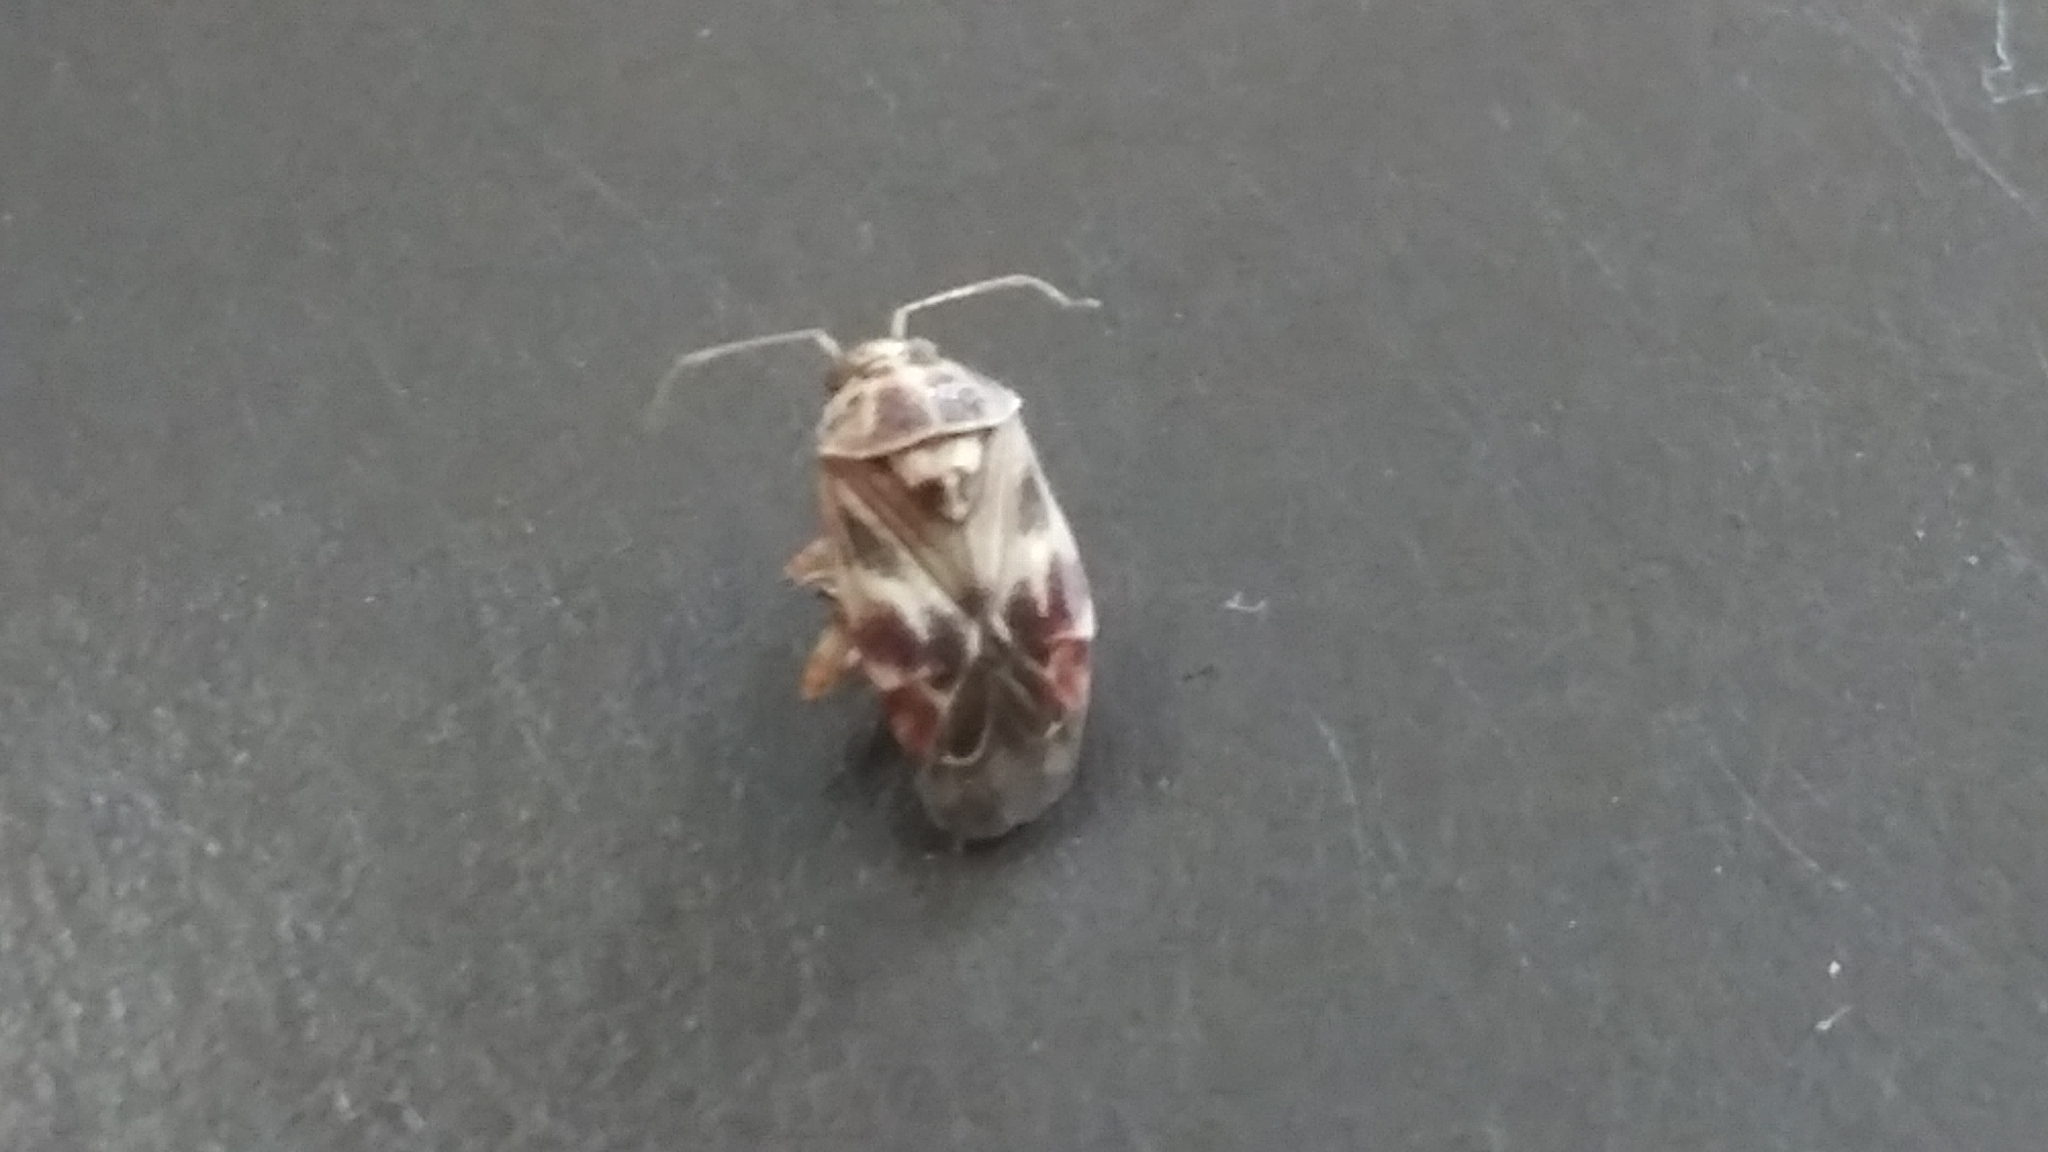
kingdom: Animalia
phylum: Arthropoda
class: Insecta
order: Hemiptera
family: Miridae
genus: Tropidosteptes
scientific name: Tropidosteptes quercicola
